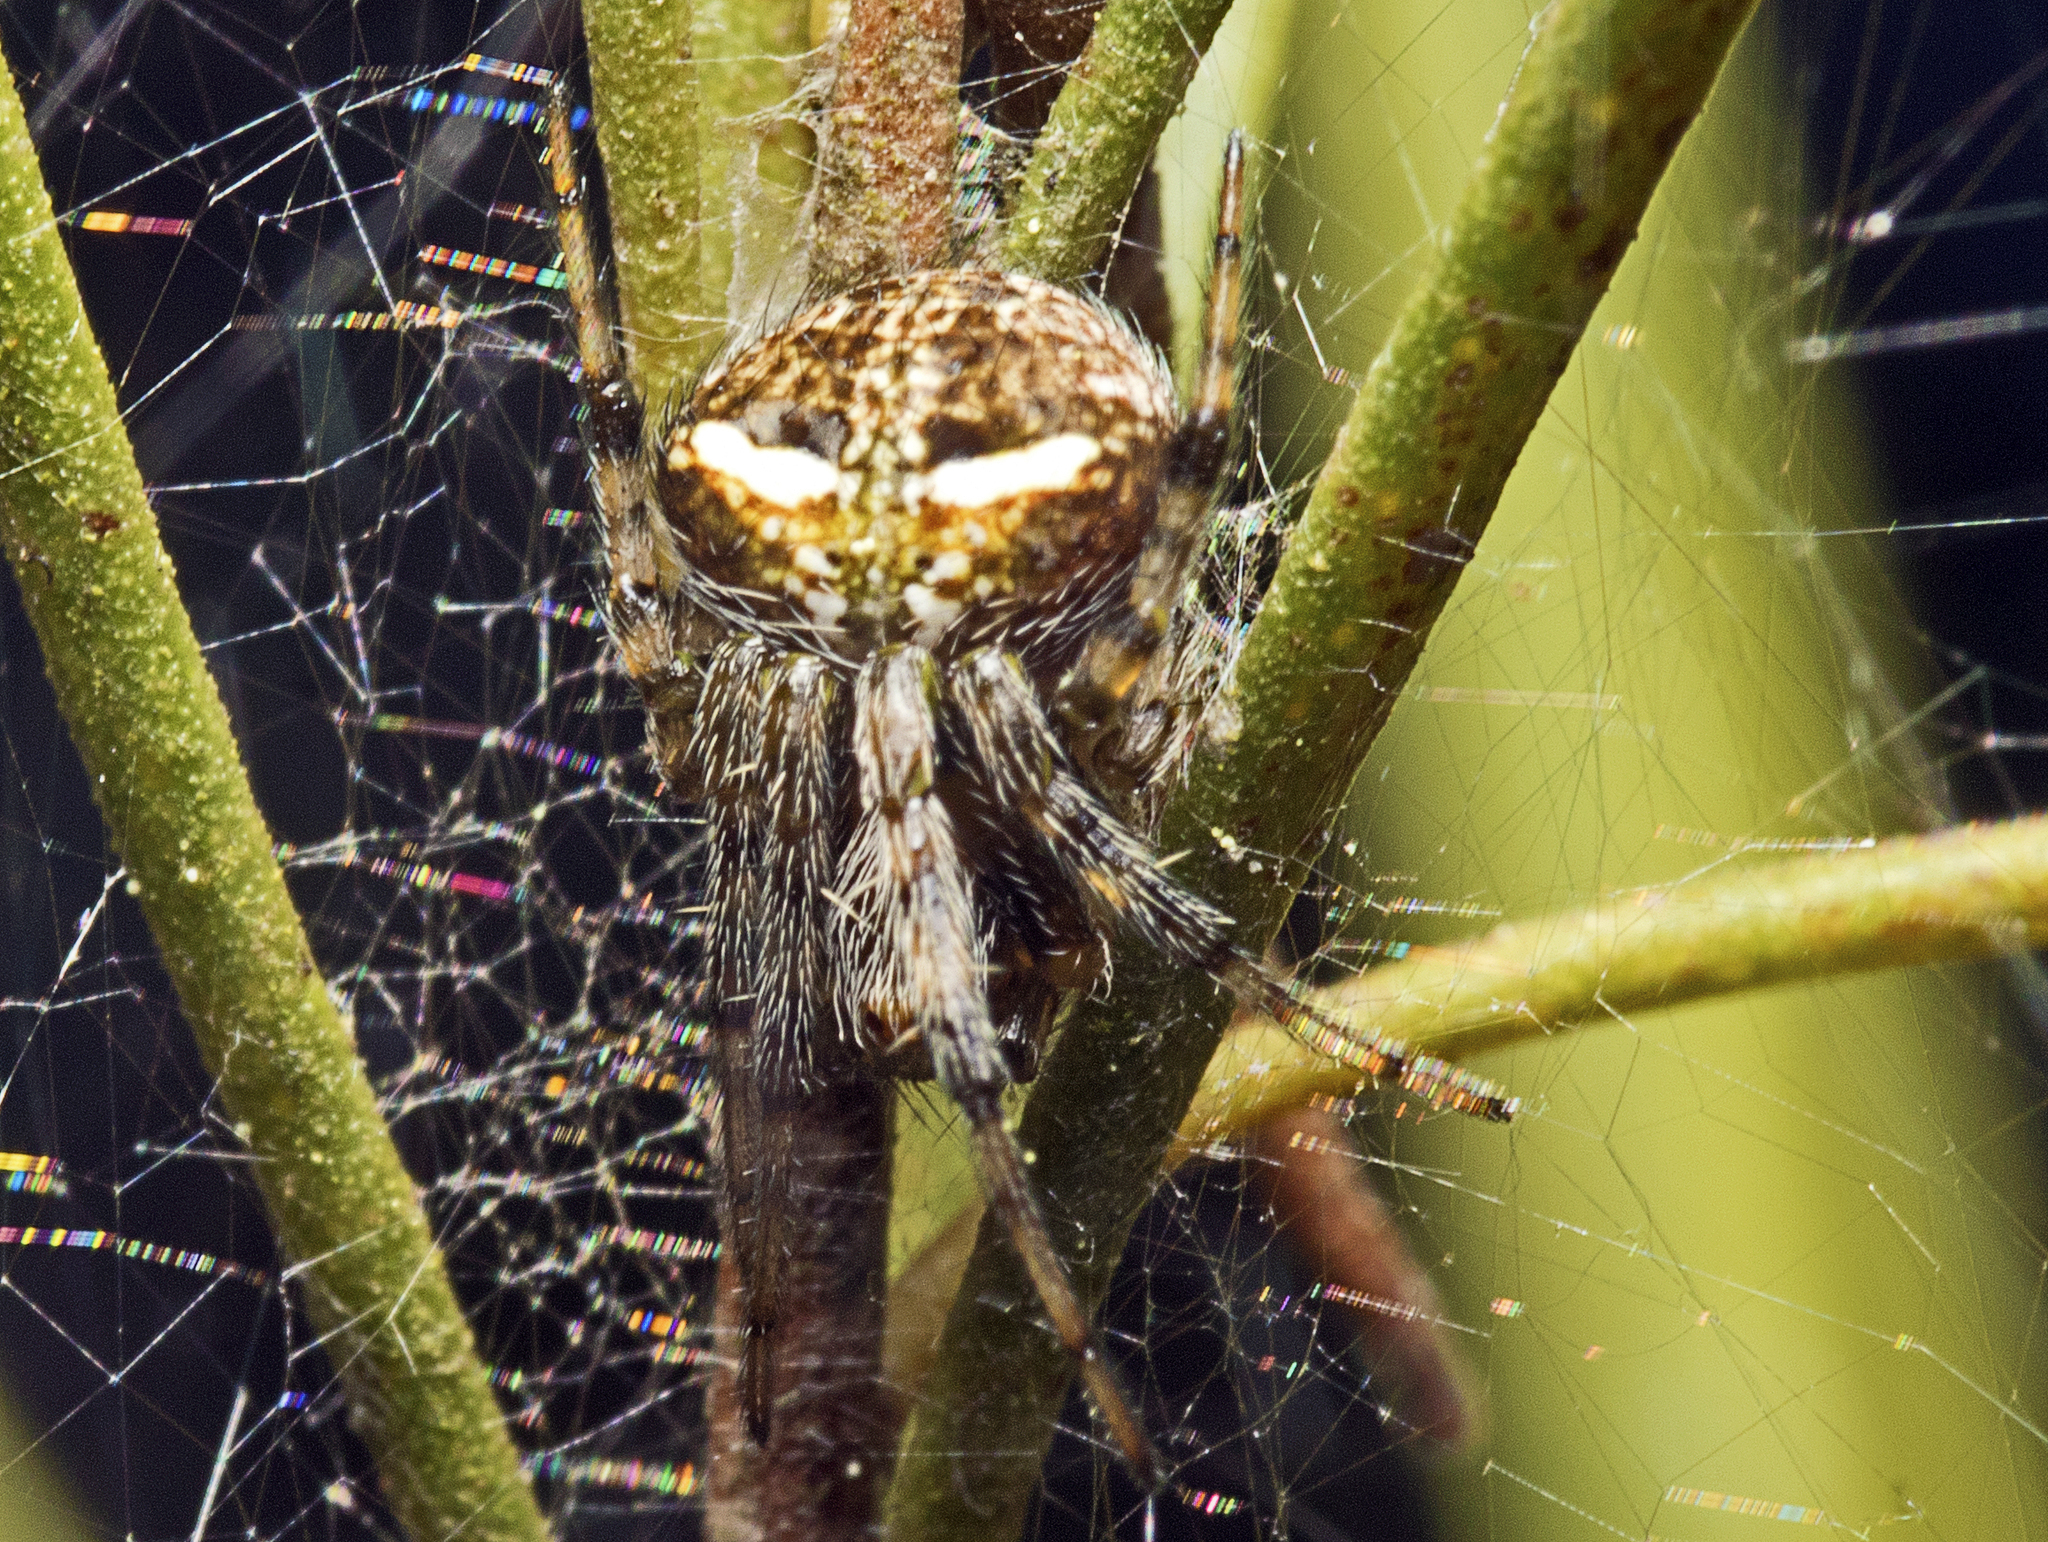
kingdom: Animalia
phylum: Arthropoda
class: Arachnida
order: Araneae
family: Araneidae
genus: Araneus
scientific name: Araneus albotriangulus
